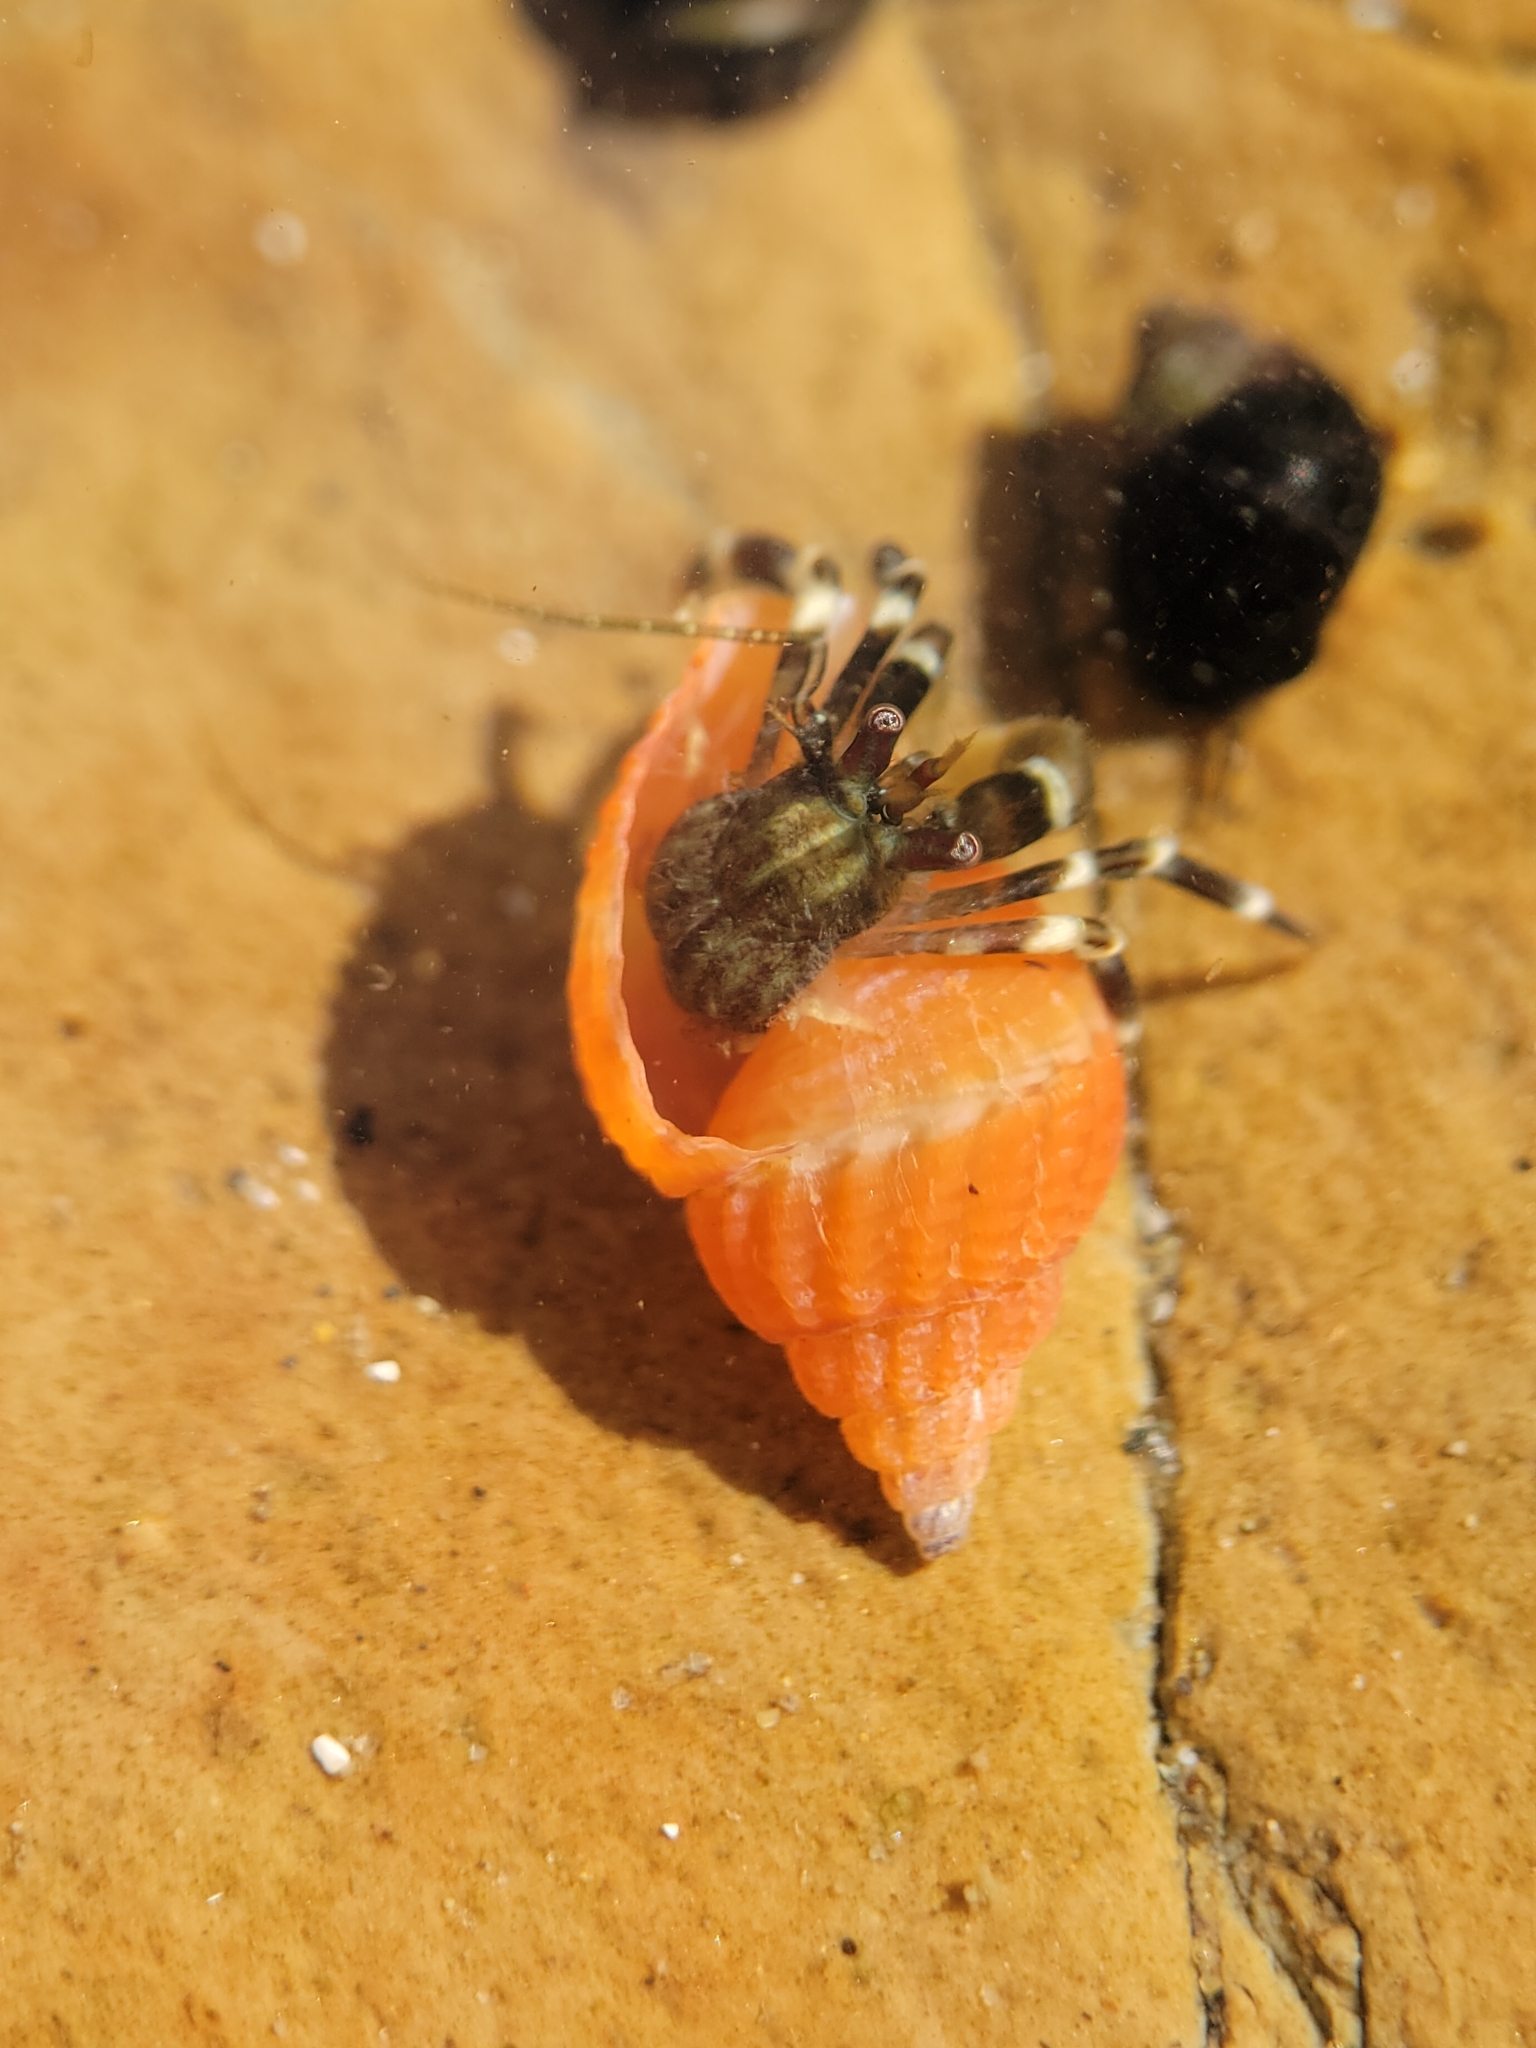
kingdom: Animalia
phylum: Arthropoda
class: Malacostraca
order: Decapoda
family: Paguridae
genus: Pagurus
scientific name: Pagurus venturensis
